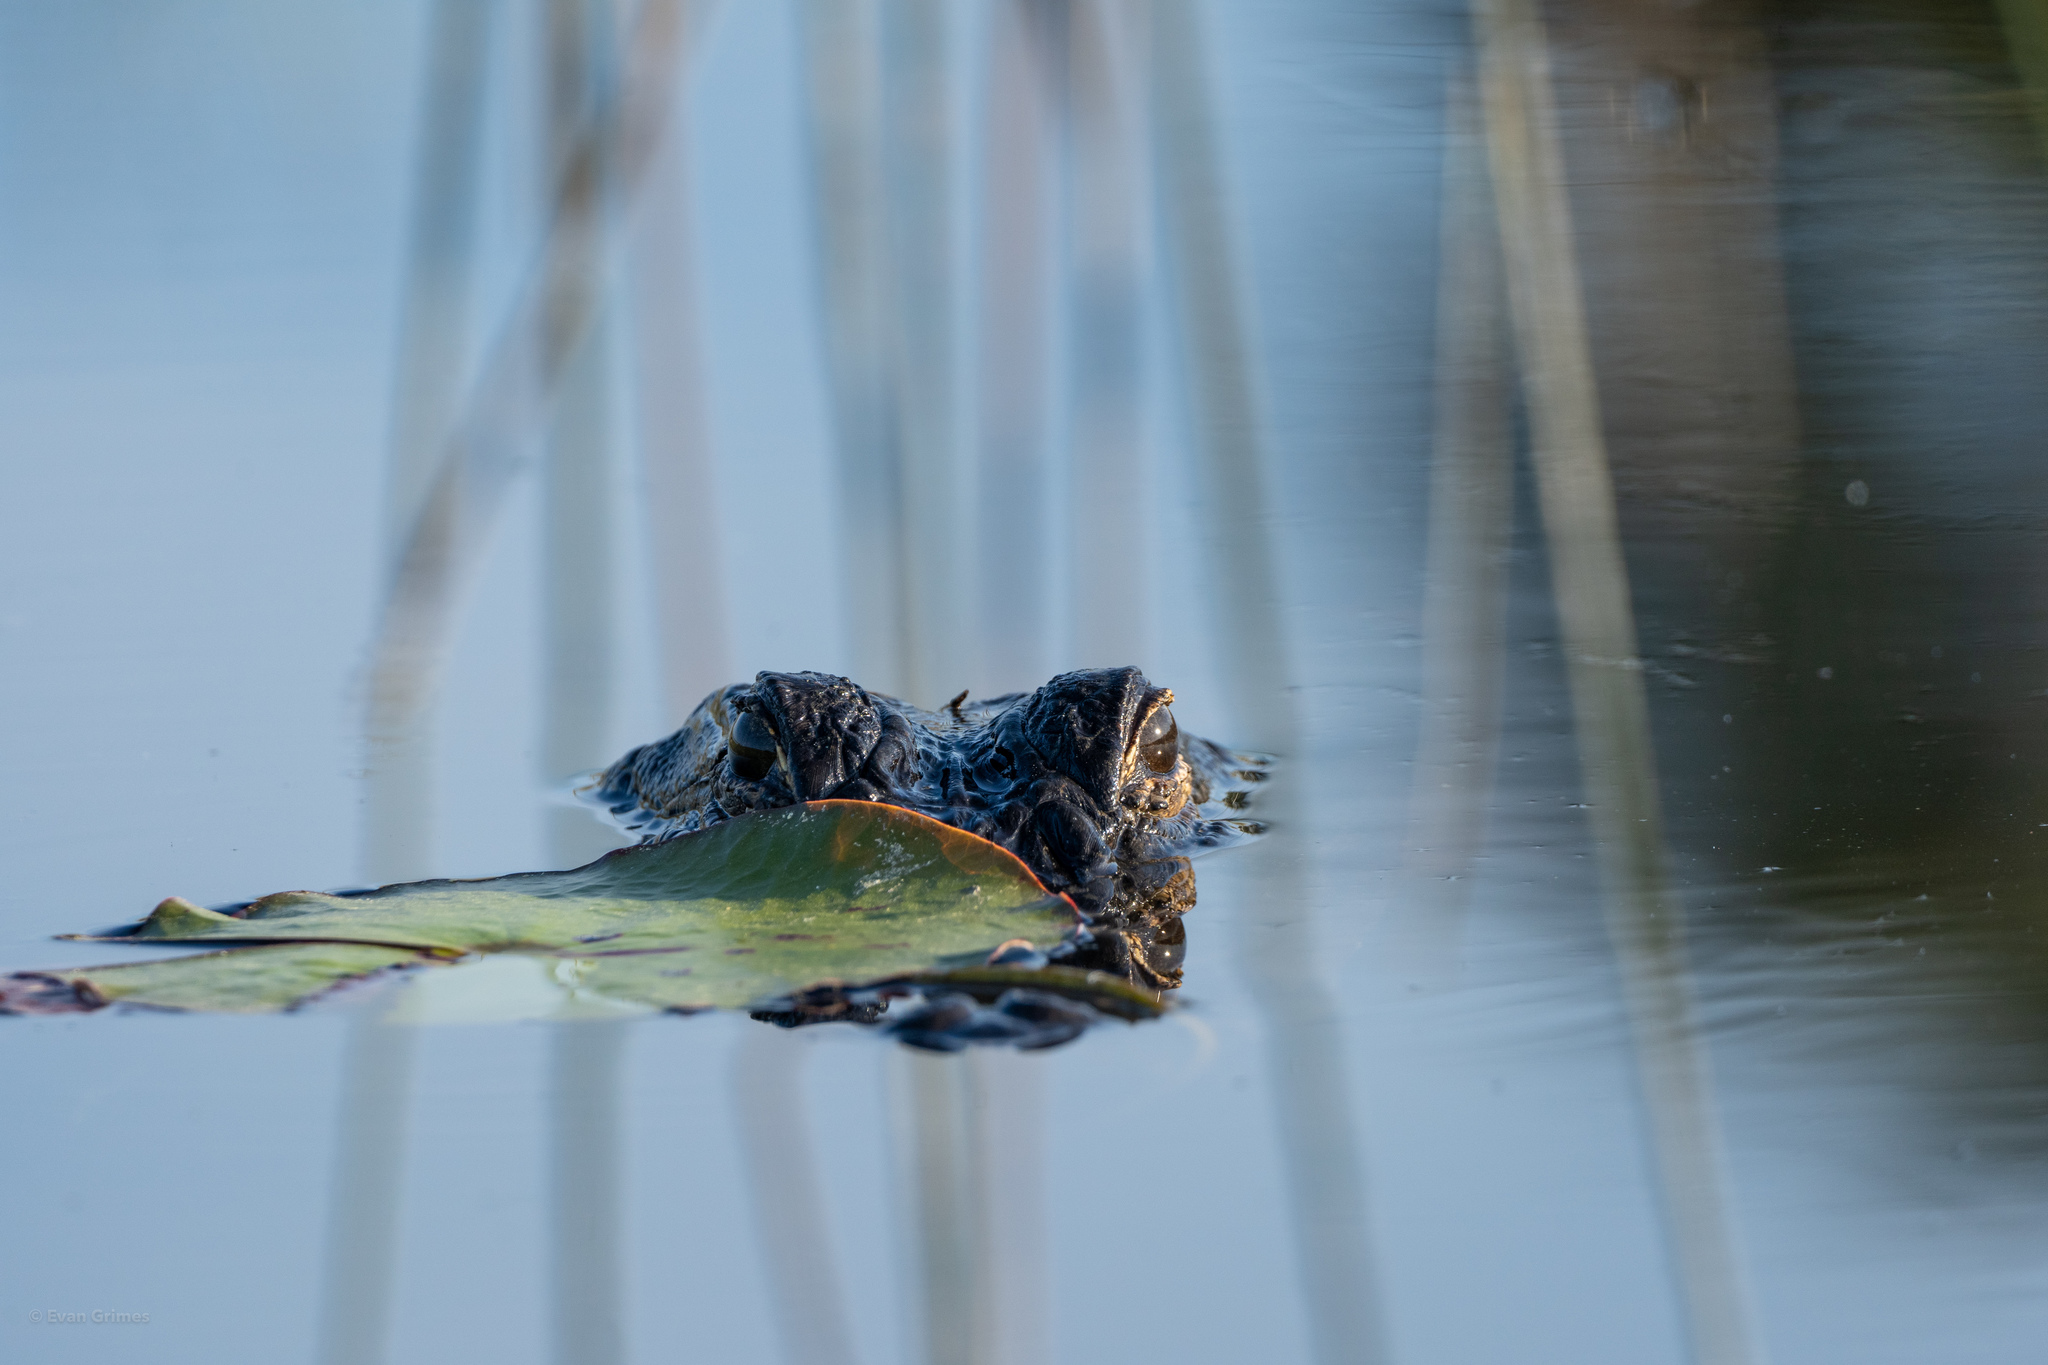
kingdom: Animalia
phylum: Chordata
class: Crocodylia
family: Alligatoridae
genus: Alligator
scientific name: Alligator mississippiensis
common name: American alligator
